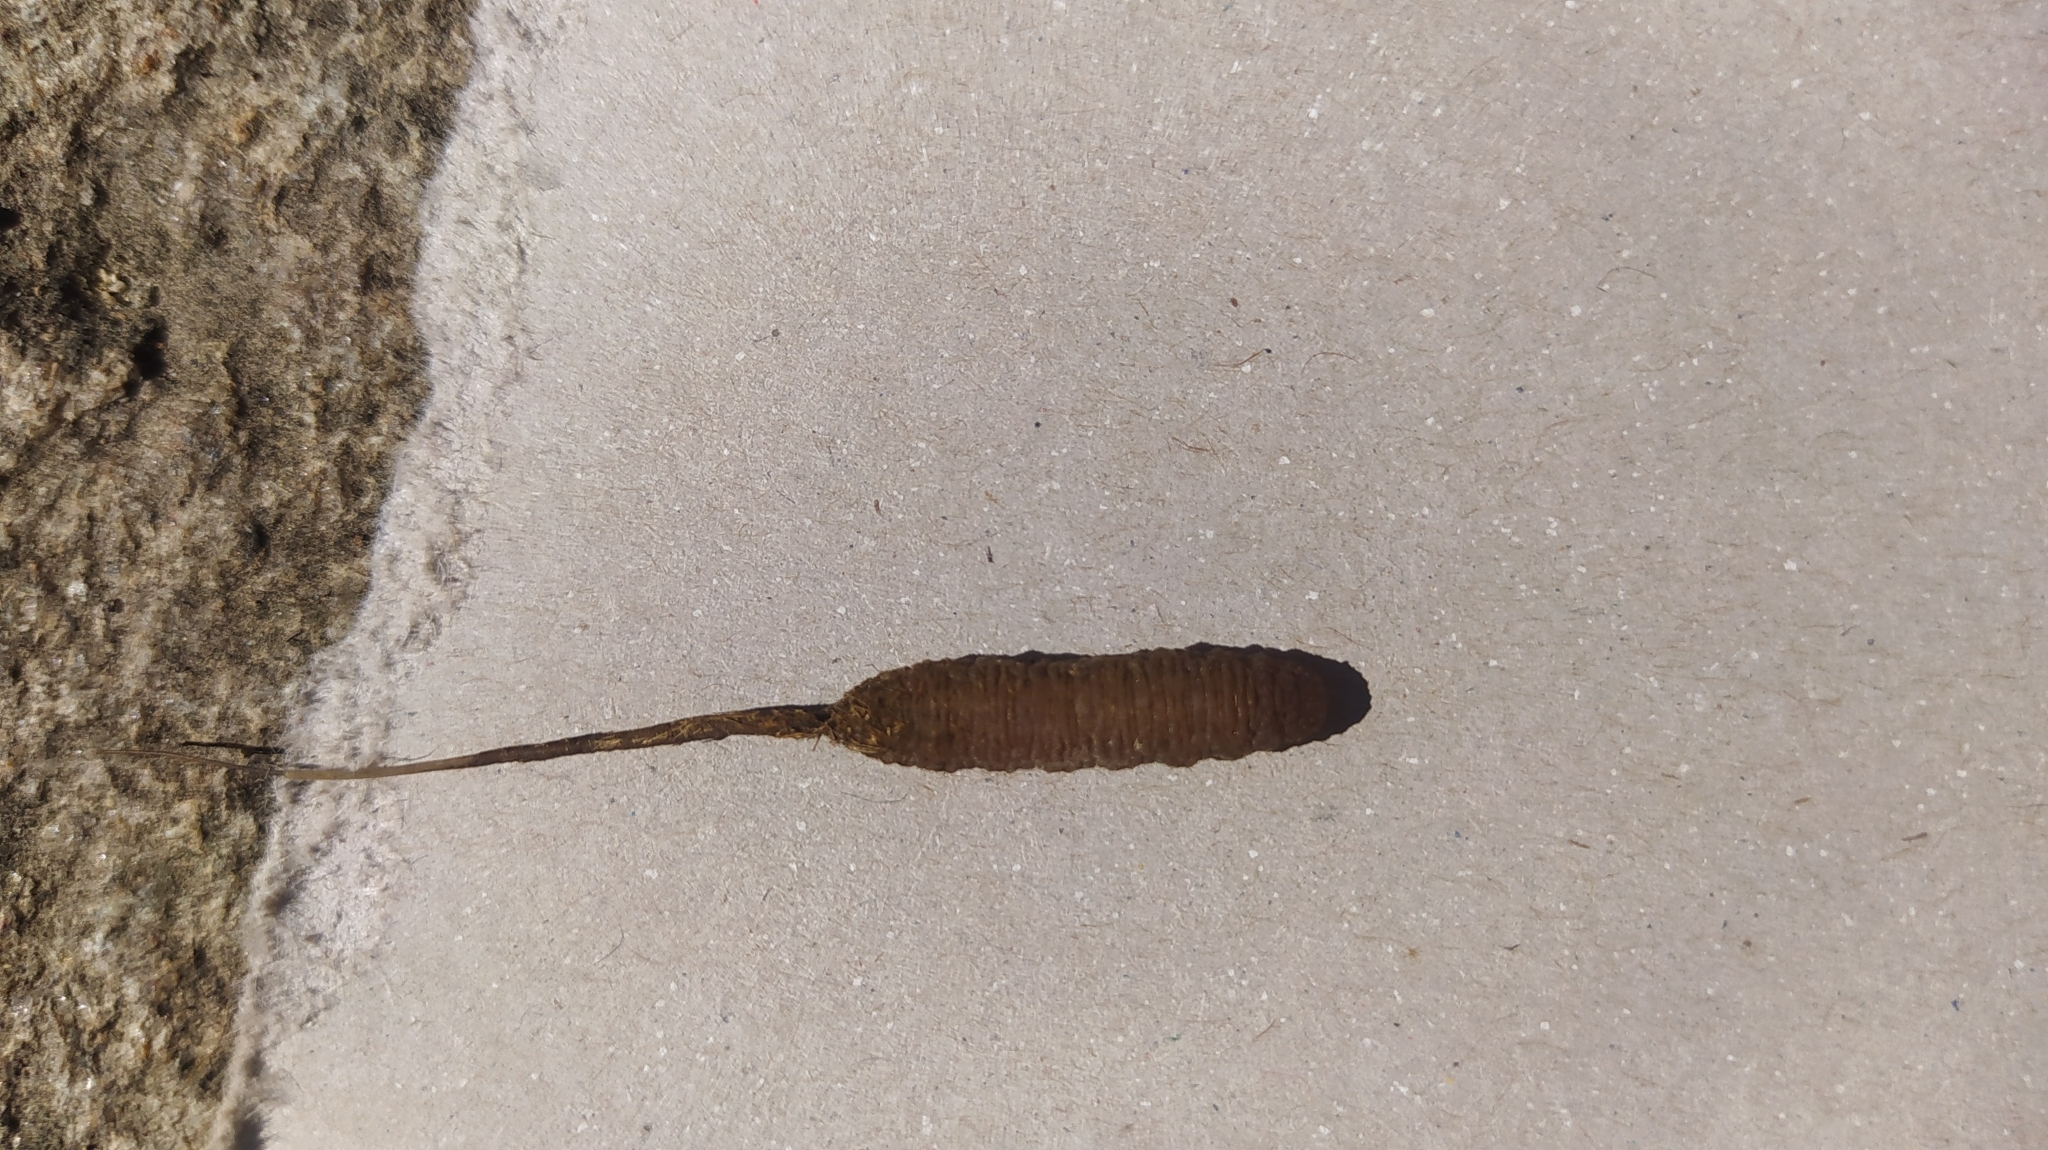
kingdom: Animalia
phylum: Arthropoda
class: Insecta
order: Diptera
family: Syrphidae
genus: Eristalis
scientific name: Eristalis tenax
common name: Drone fly
